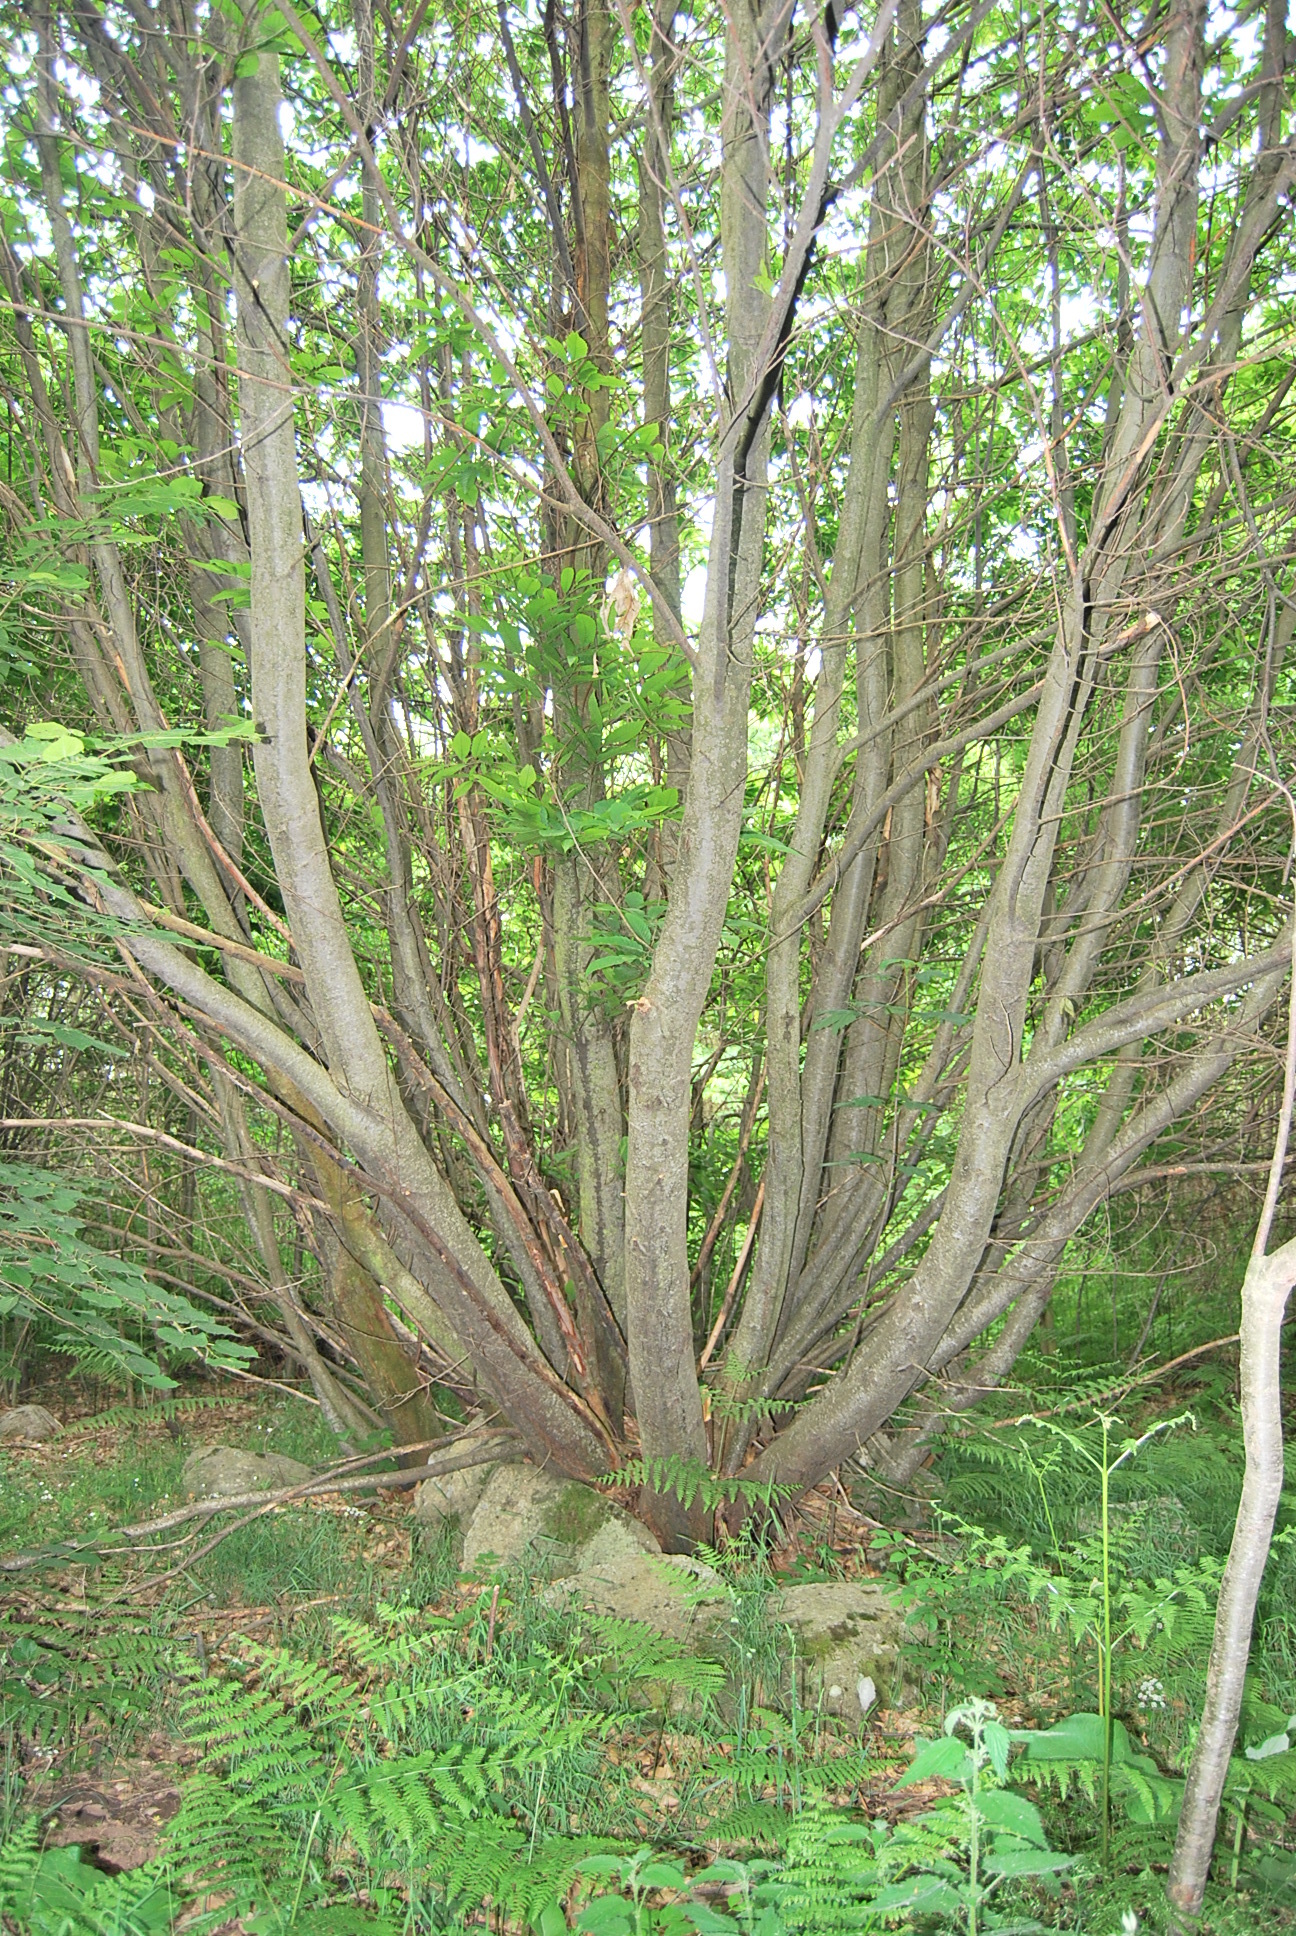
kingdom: Plantae
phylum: Tracheophyta
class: Magnoliopsida
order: Fagales
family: Fagaceae
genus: Castanea
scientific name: Castanea sativa
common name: Sweet chestnut
